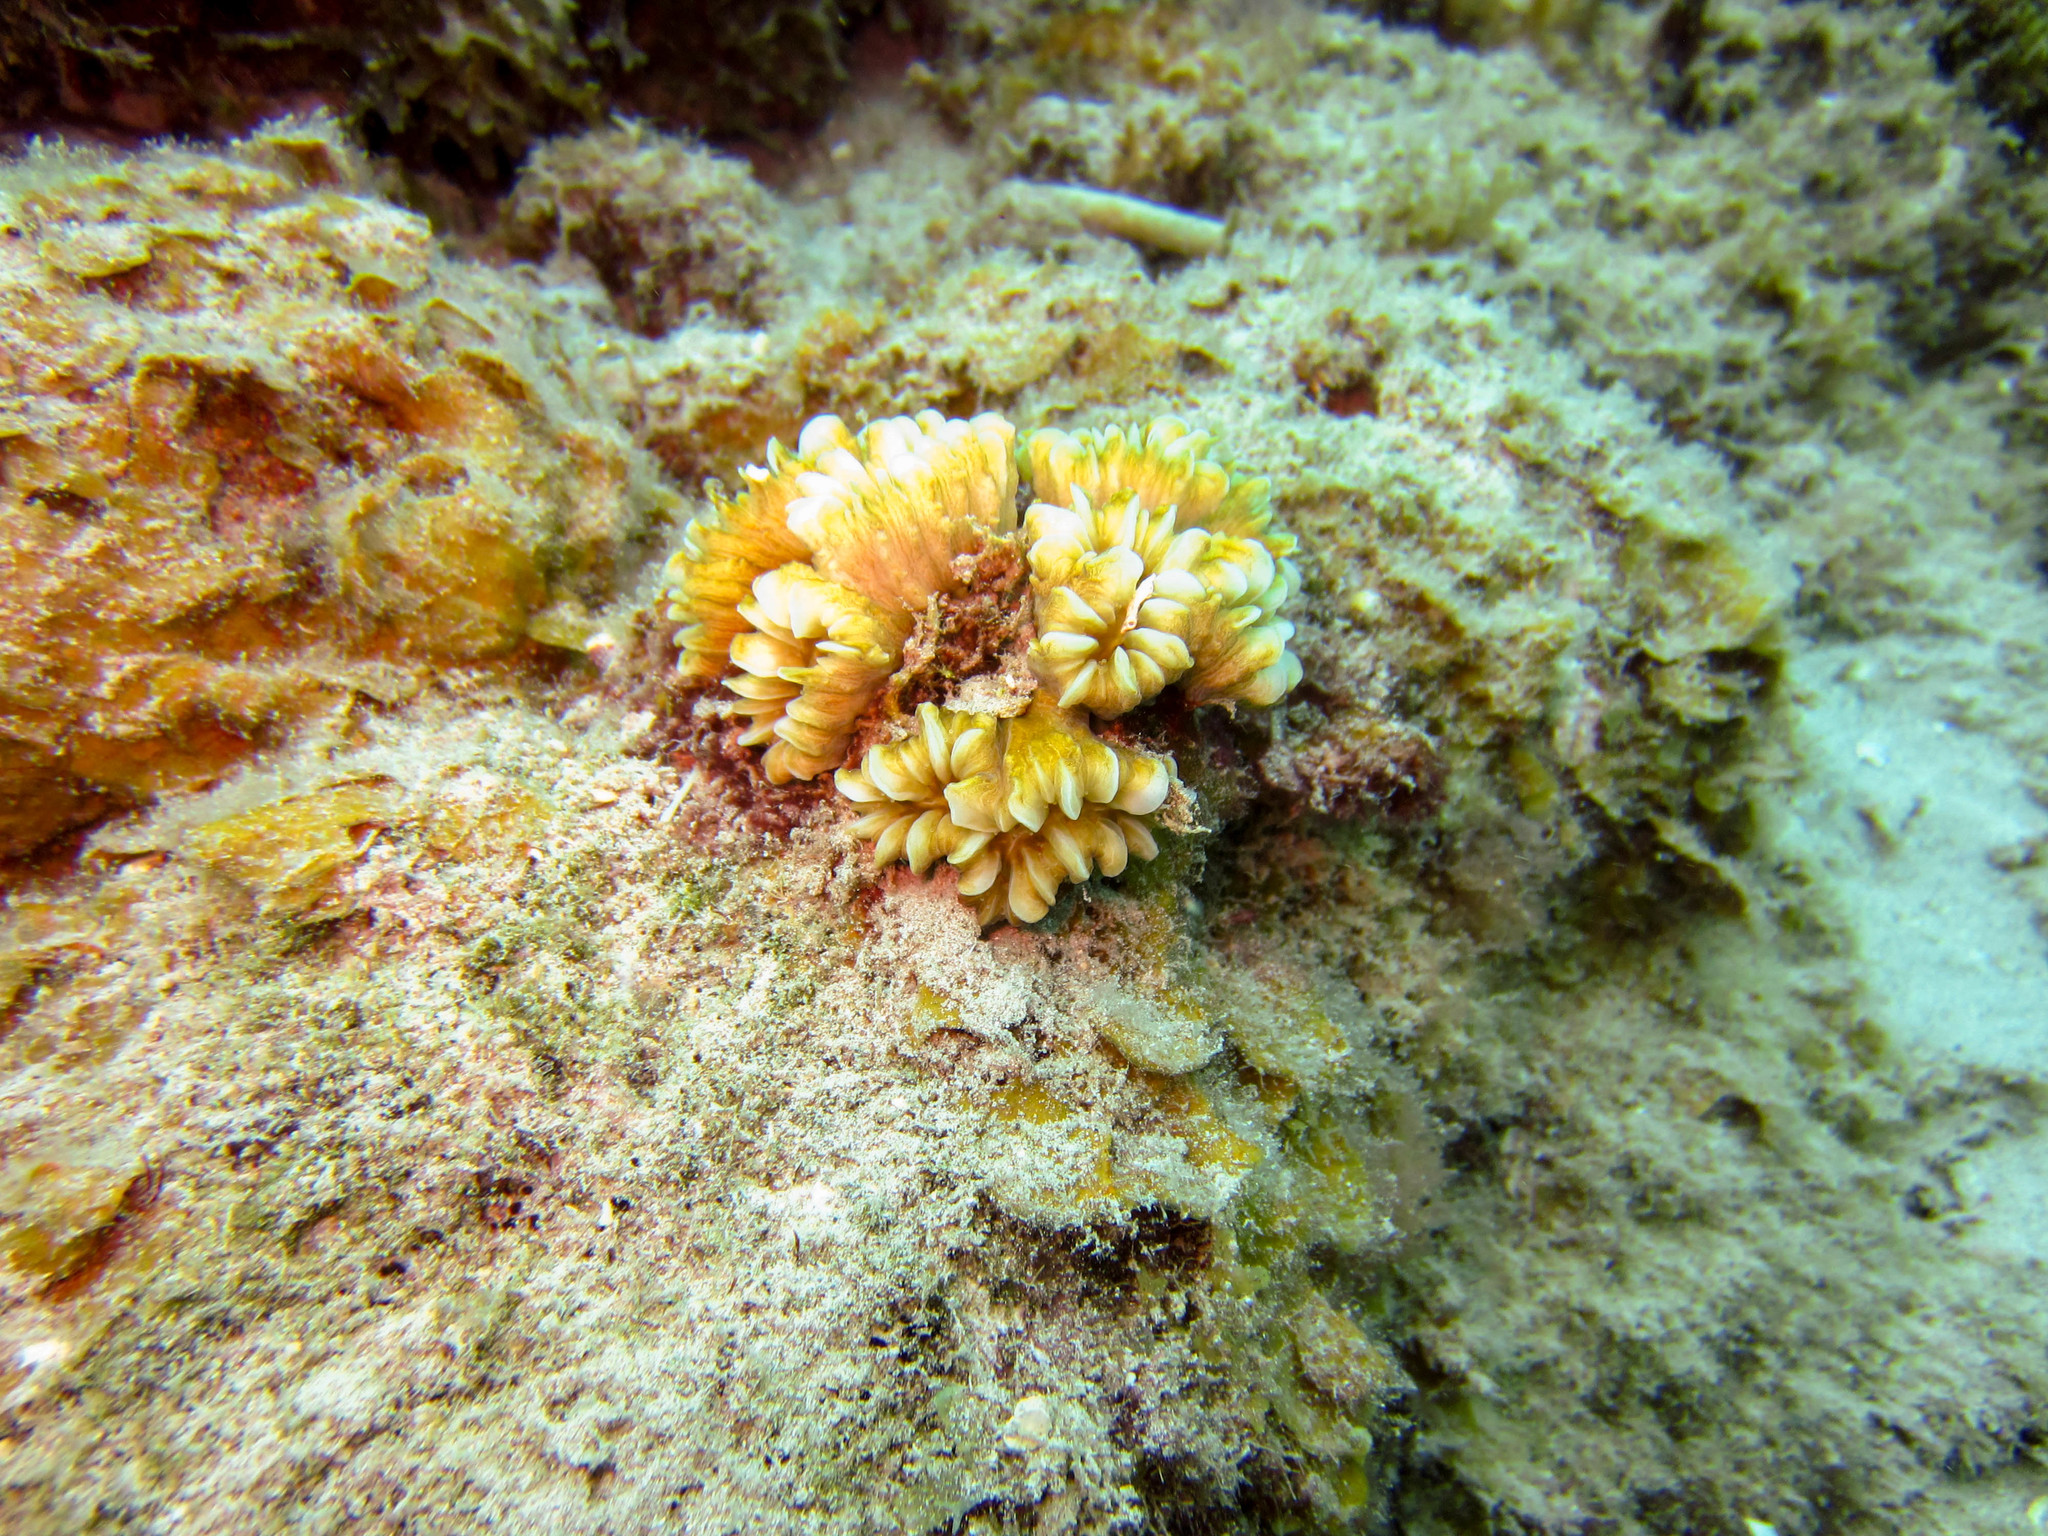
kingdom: Animalia
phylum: Cnidaria
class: Anthozoa
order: Scleractinia
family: Meandrinidae
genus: Eusmilia
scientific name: Eusmilia fastigiata
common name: Smooth flower coral
